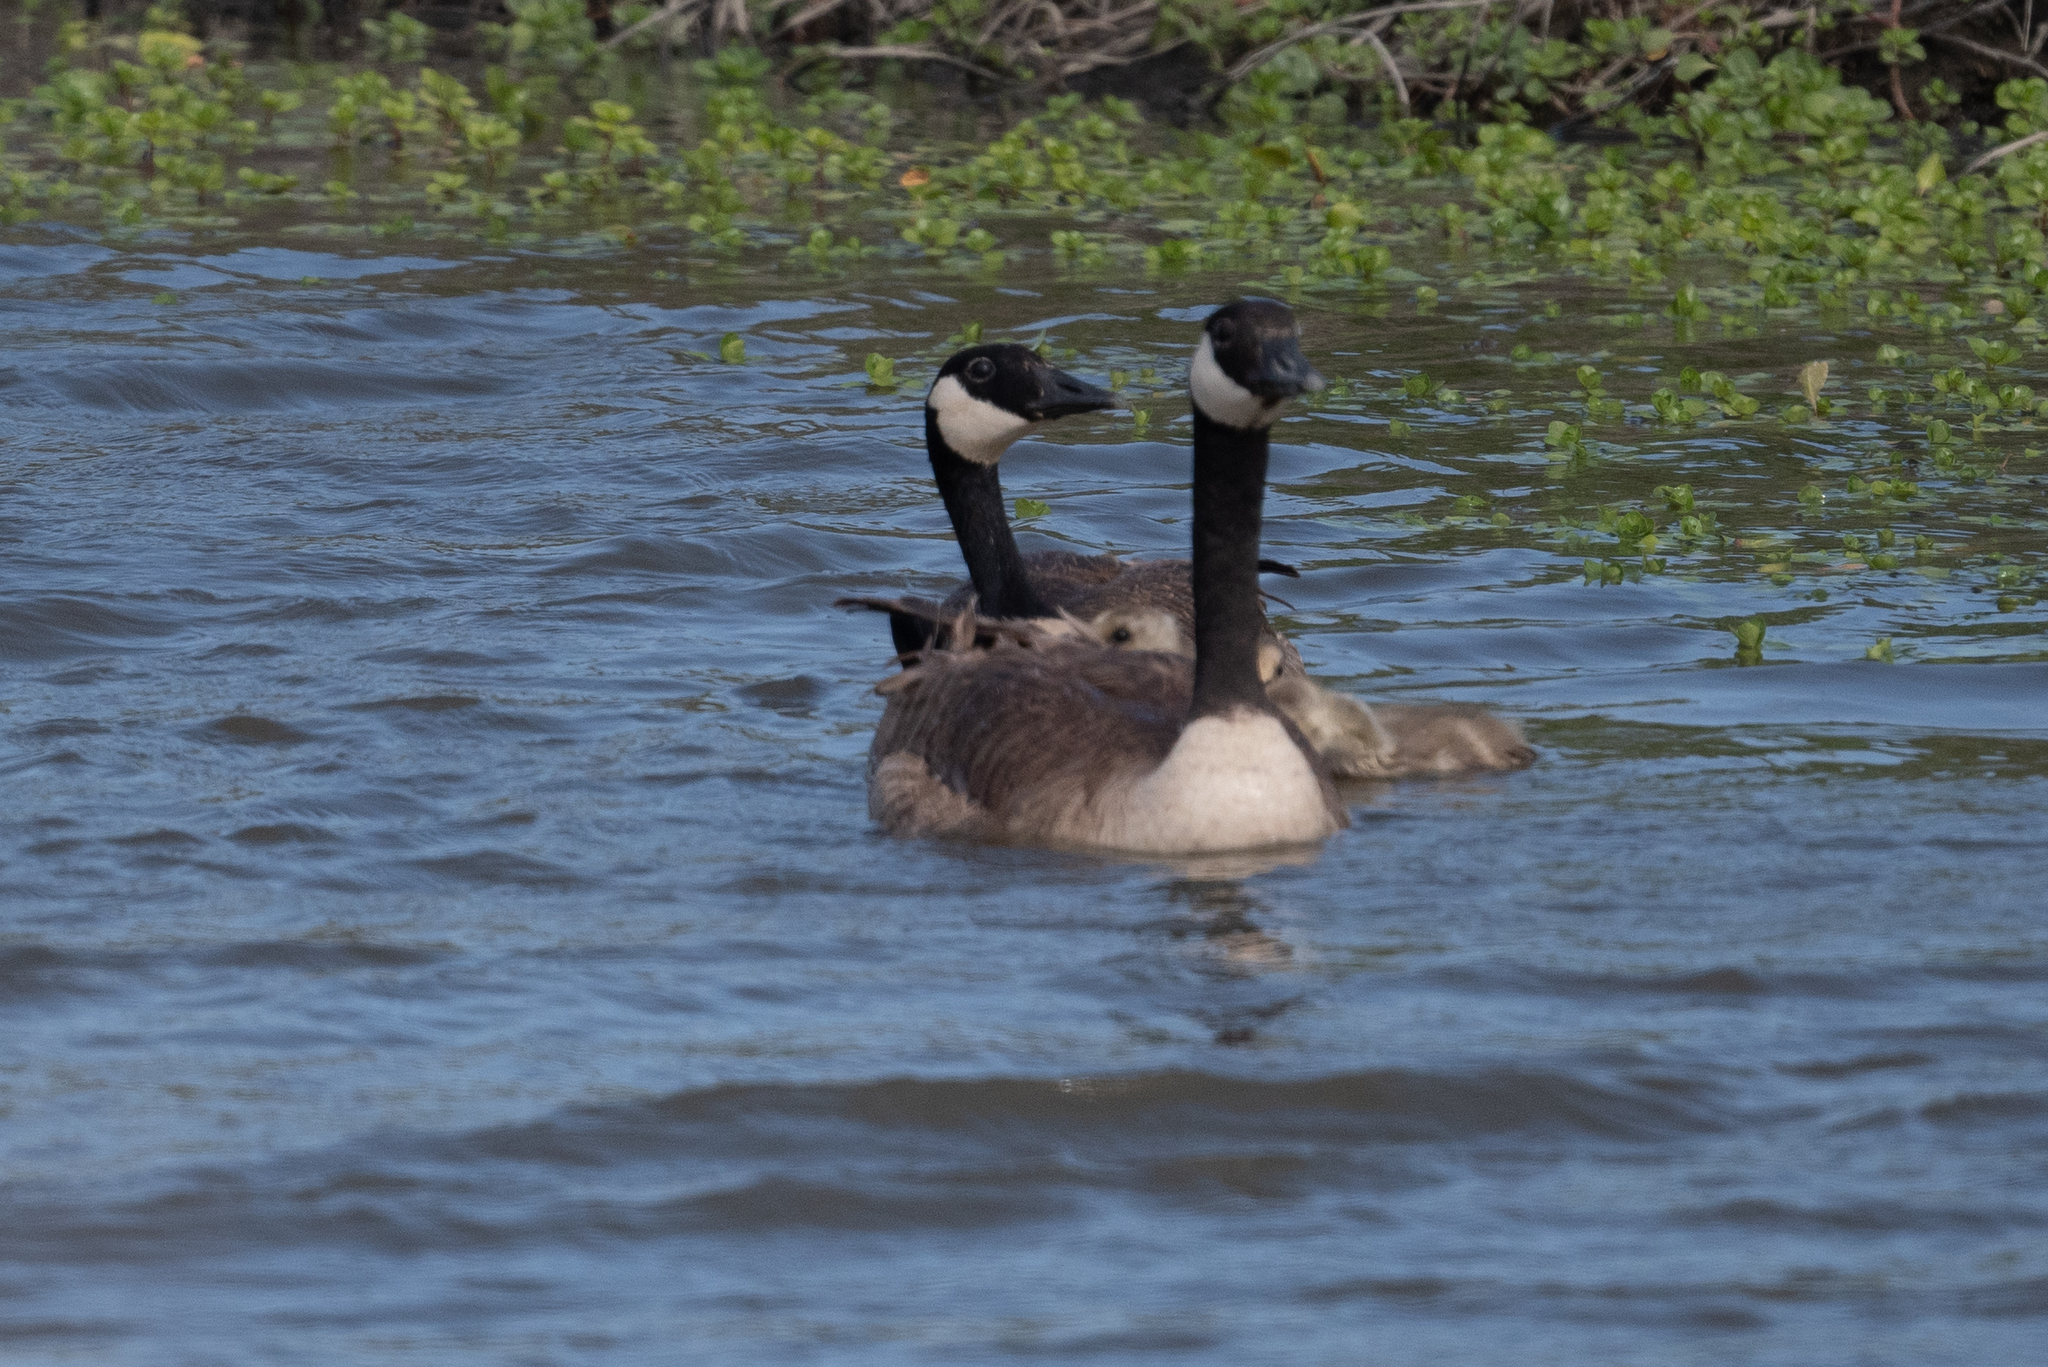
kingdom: Animalia
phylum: Chordata
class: Aves
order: Anseriformes
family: Anatidae
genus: Branta
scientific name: Branta canadensis
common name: Canada goose
